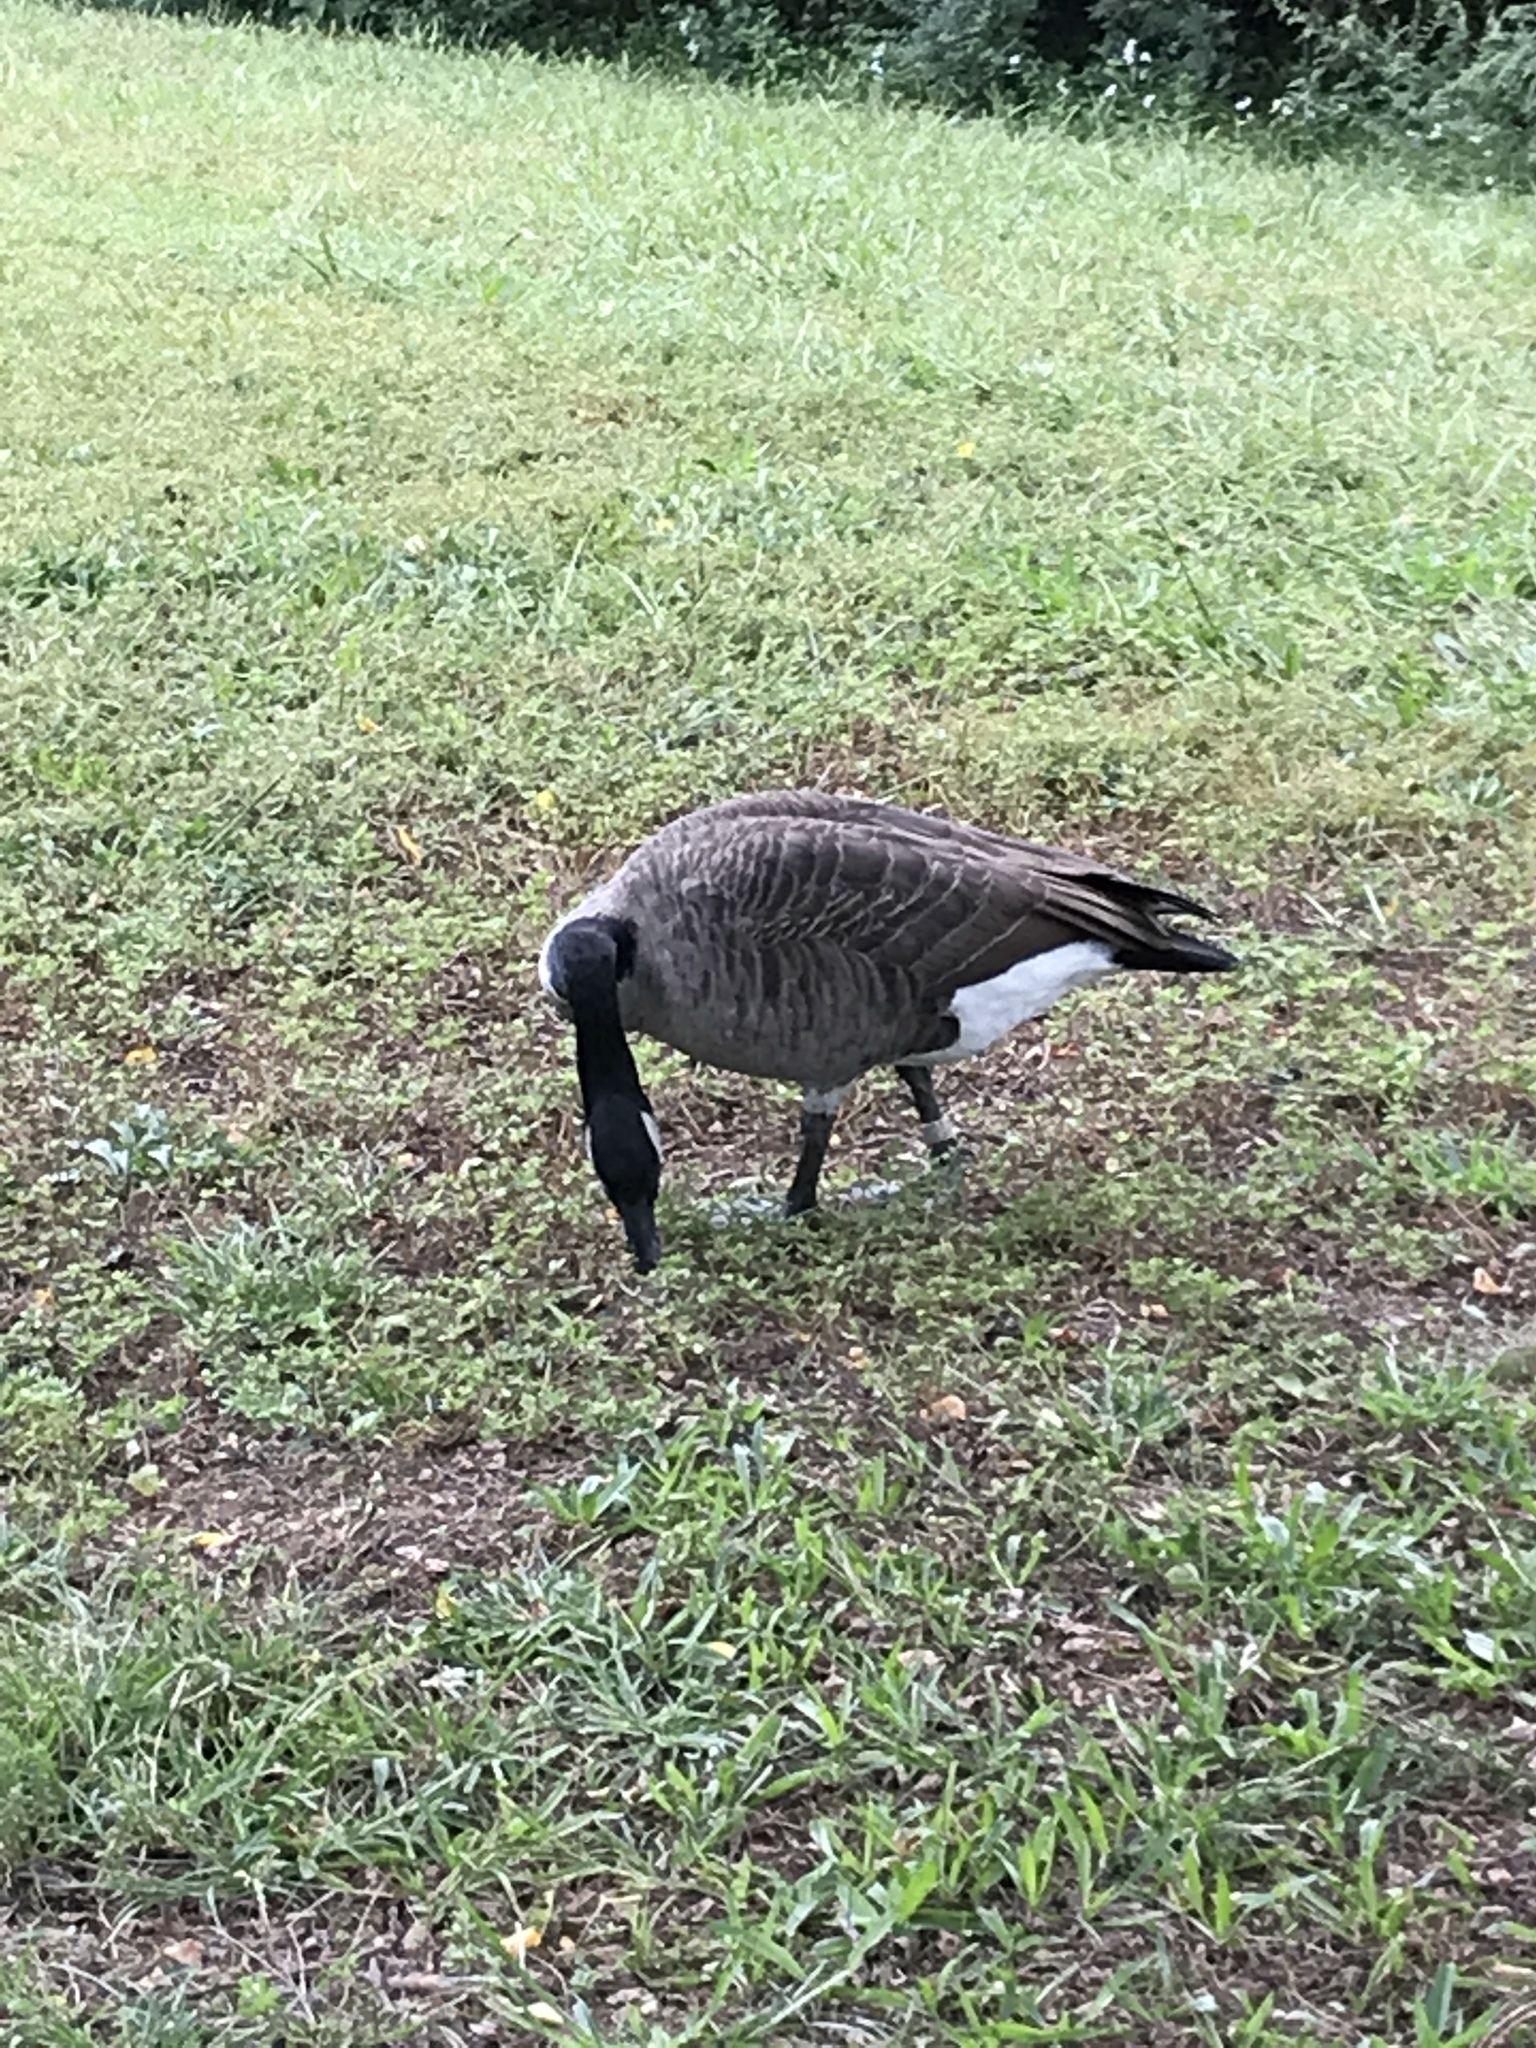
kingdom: Animalia
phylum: Chordata
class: Aves
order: Anseriformes
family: Anatidae
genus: Branta
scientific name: Branta canadensis
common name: Canada goose
